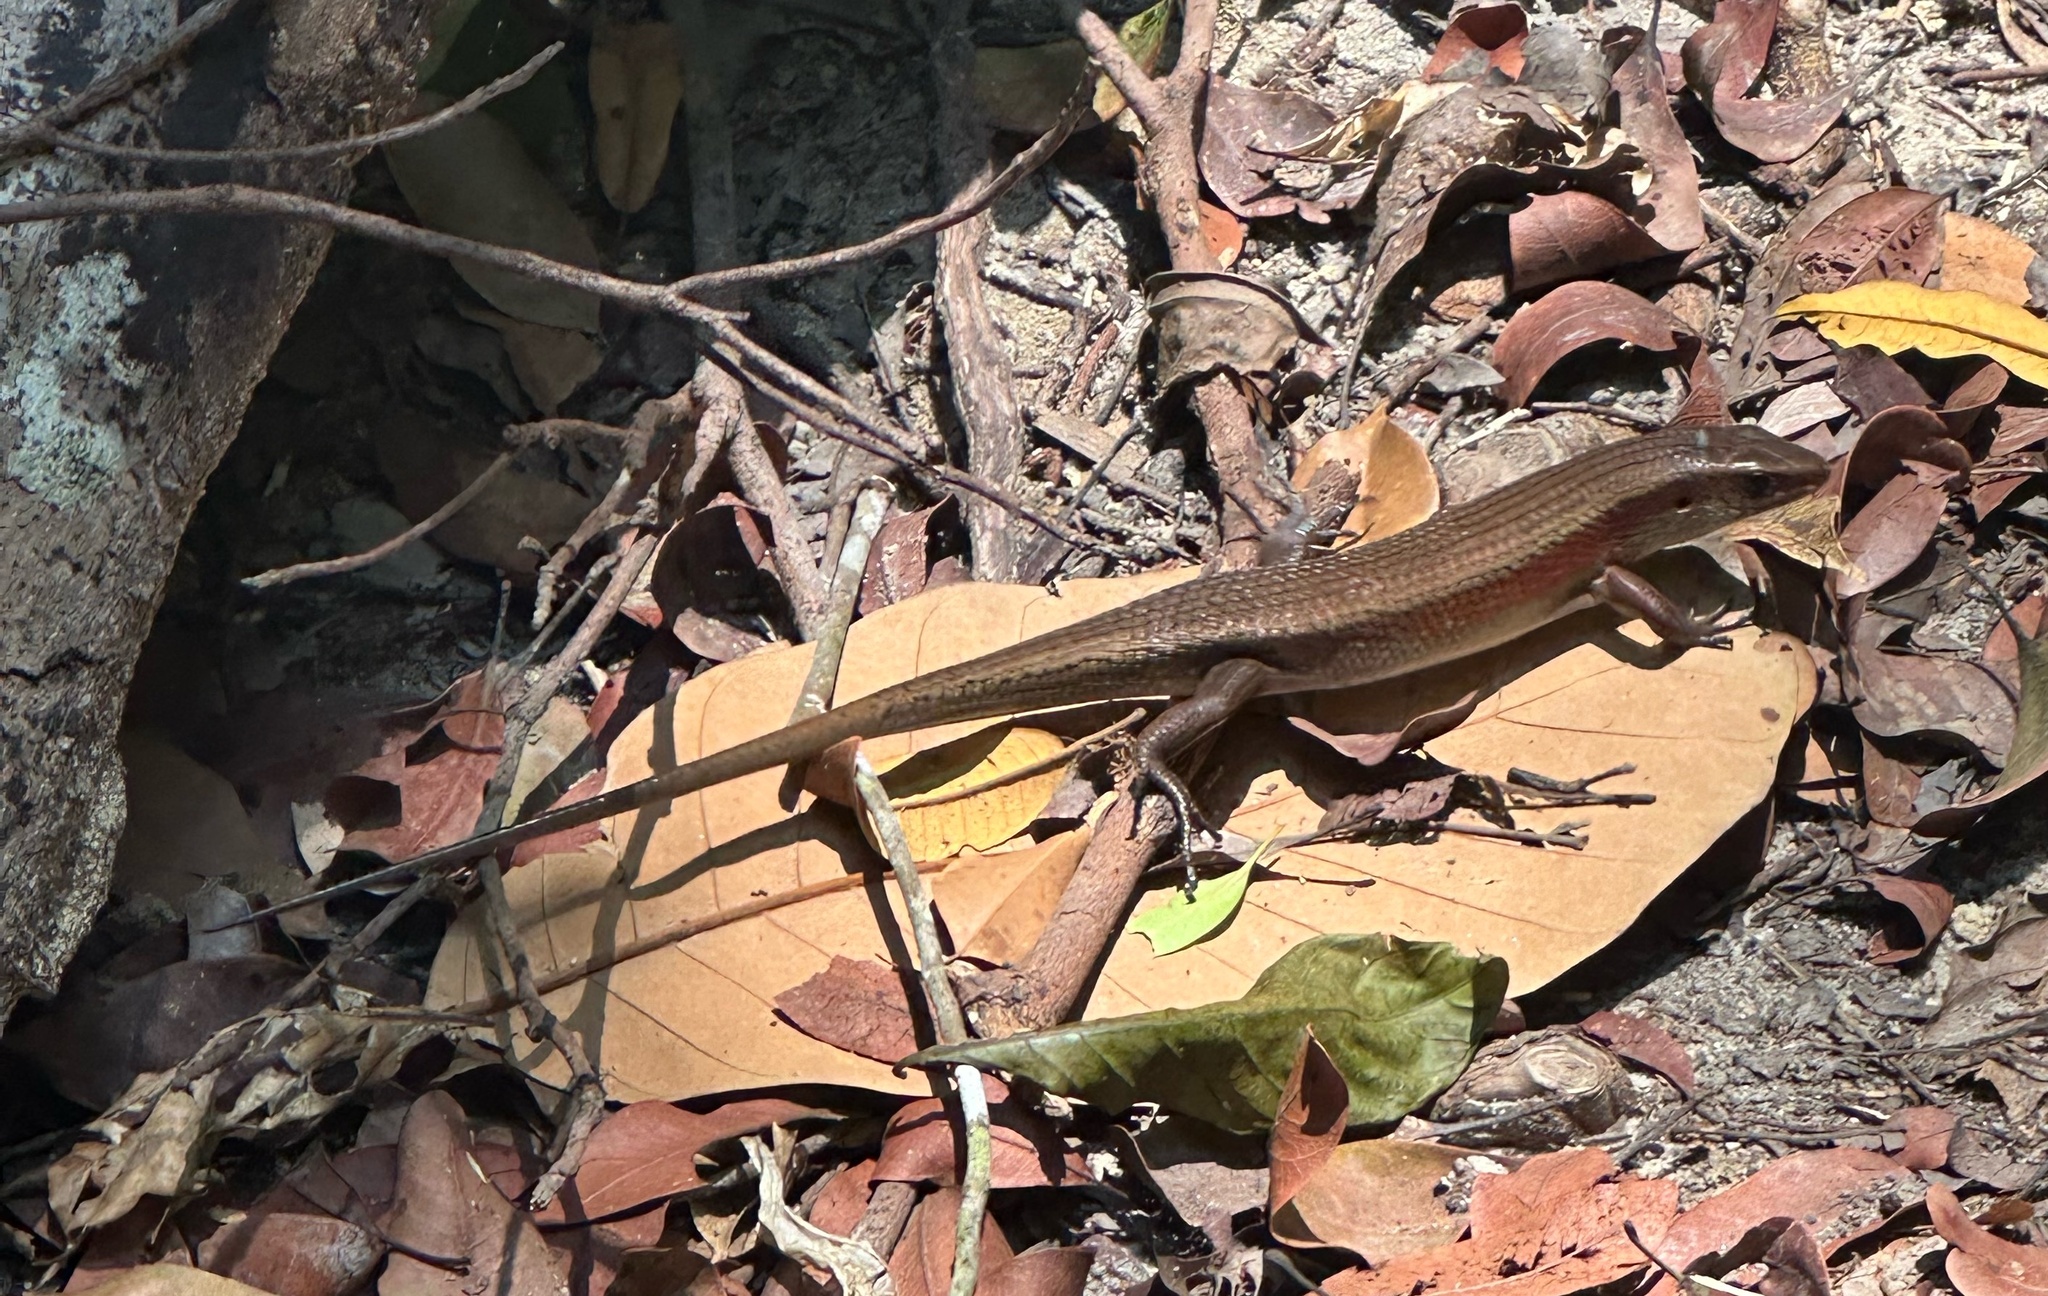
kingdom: Animalia
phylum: Chordata
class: Squamata
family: Scincidae
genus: Eutropis
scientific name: Eutropis multifasciata
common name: Common mabuya
